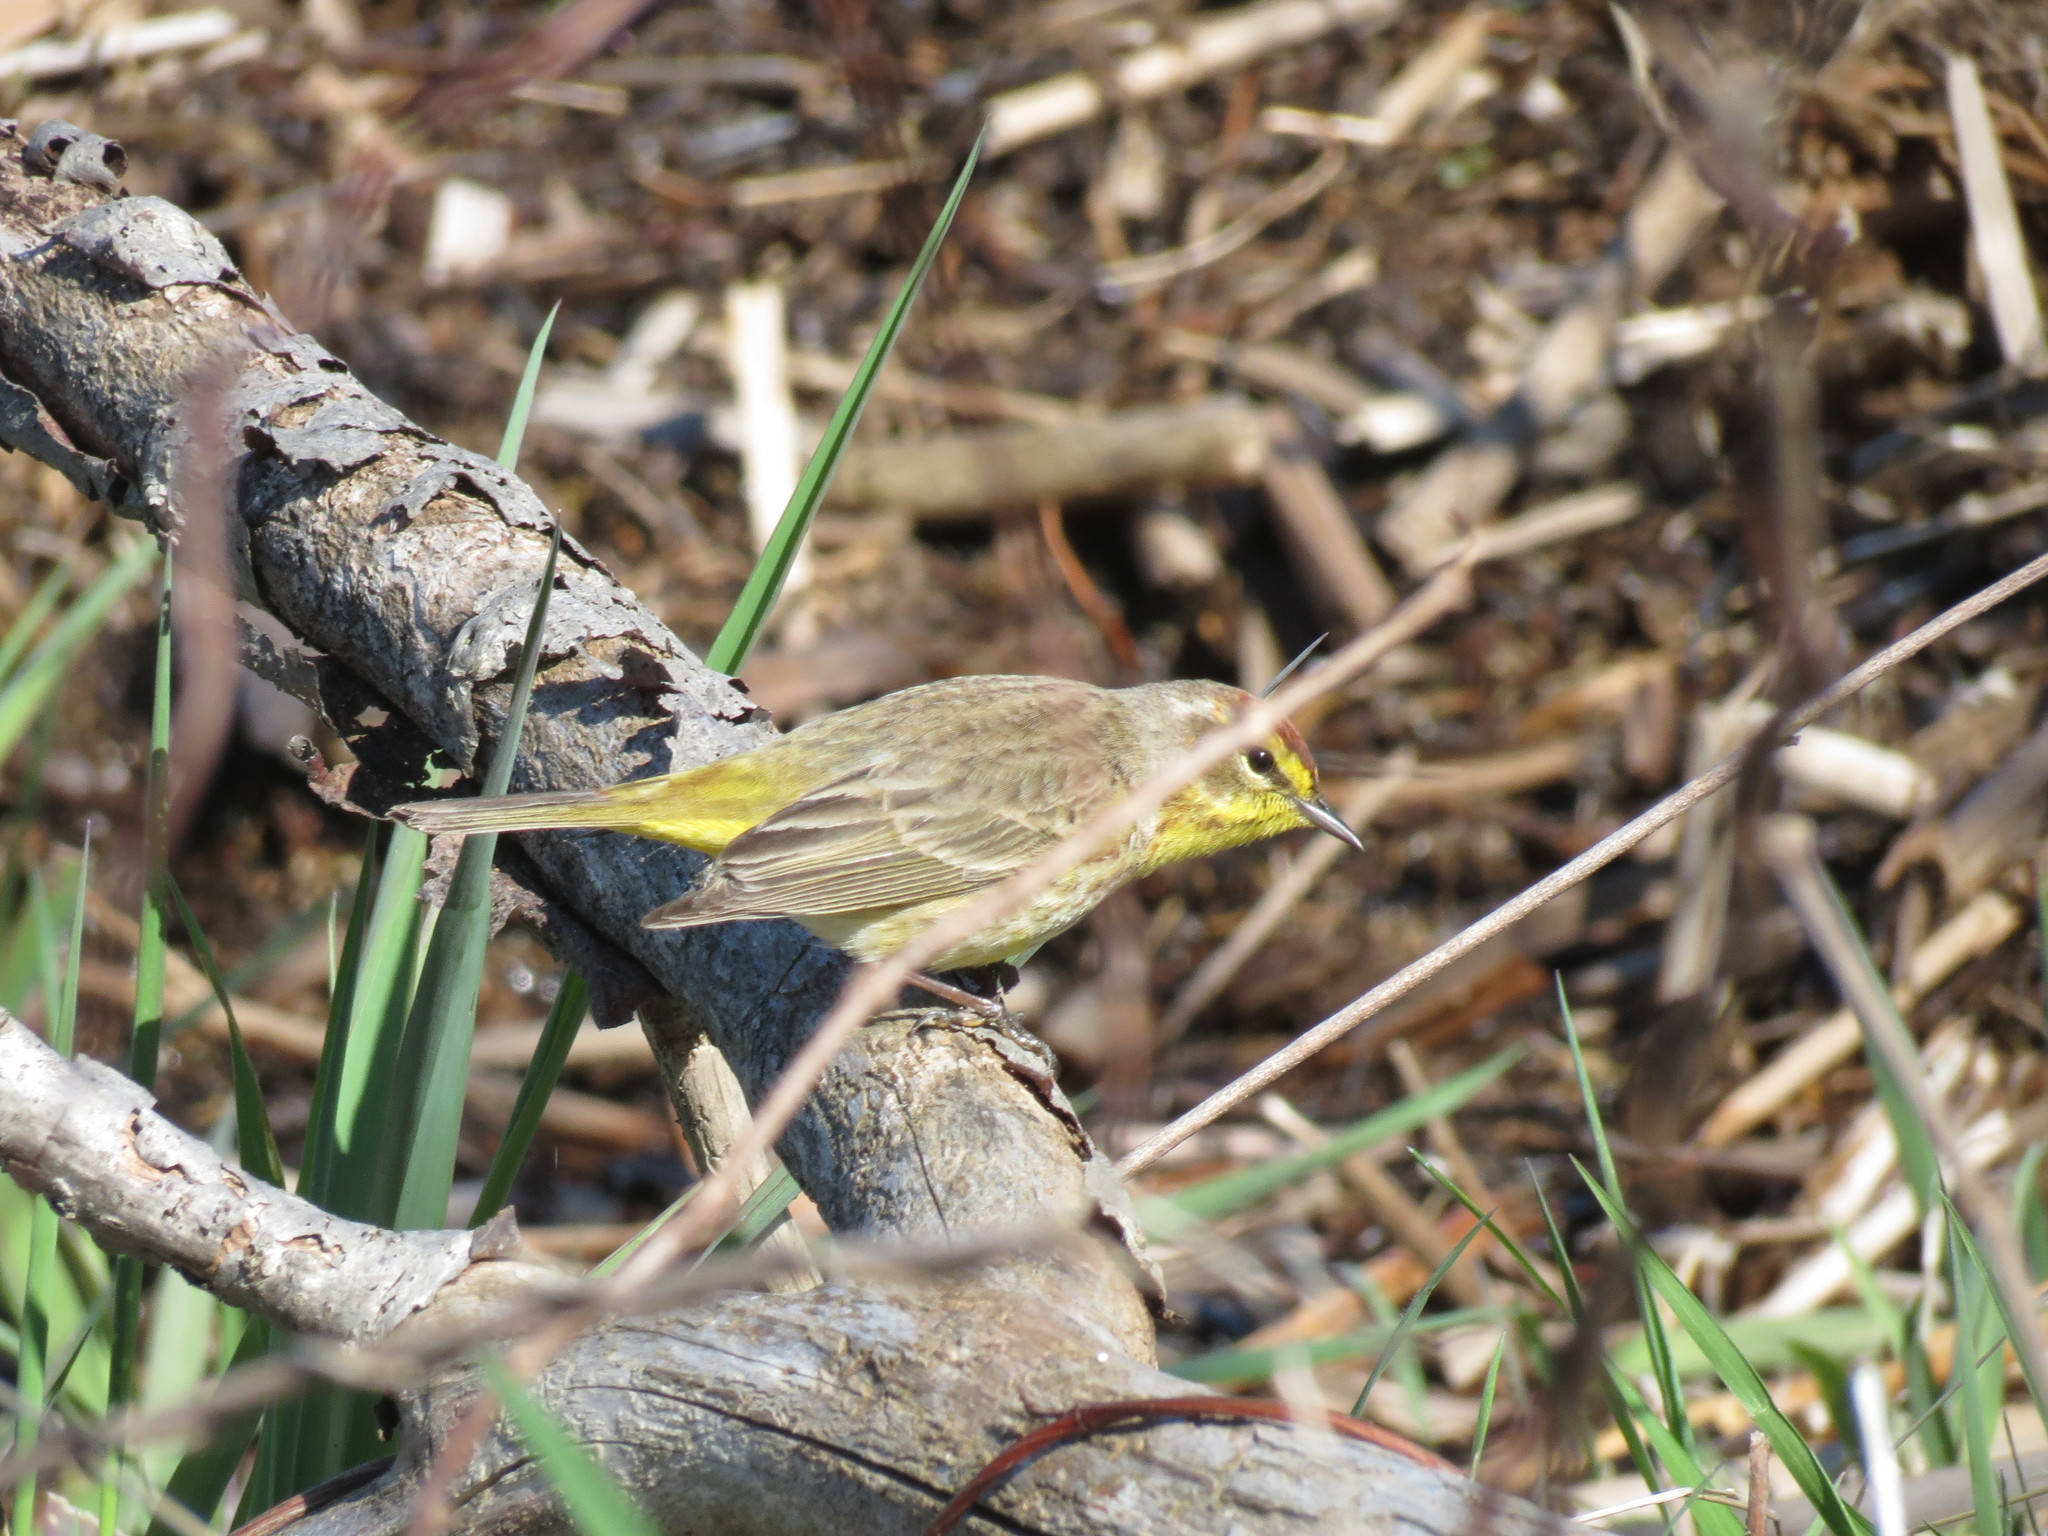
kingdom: Animalia
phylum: Chordata
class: Aves
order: Passeriformes
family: Parulidae
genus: Setophaga
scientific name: Setophaga palmarum
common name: Palm warbler
